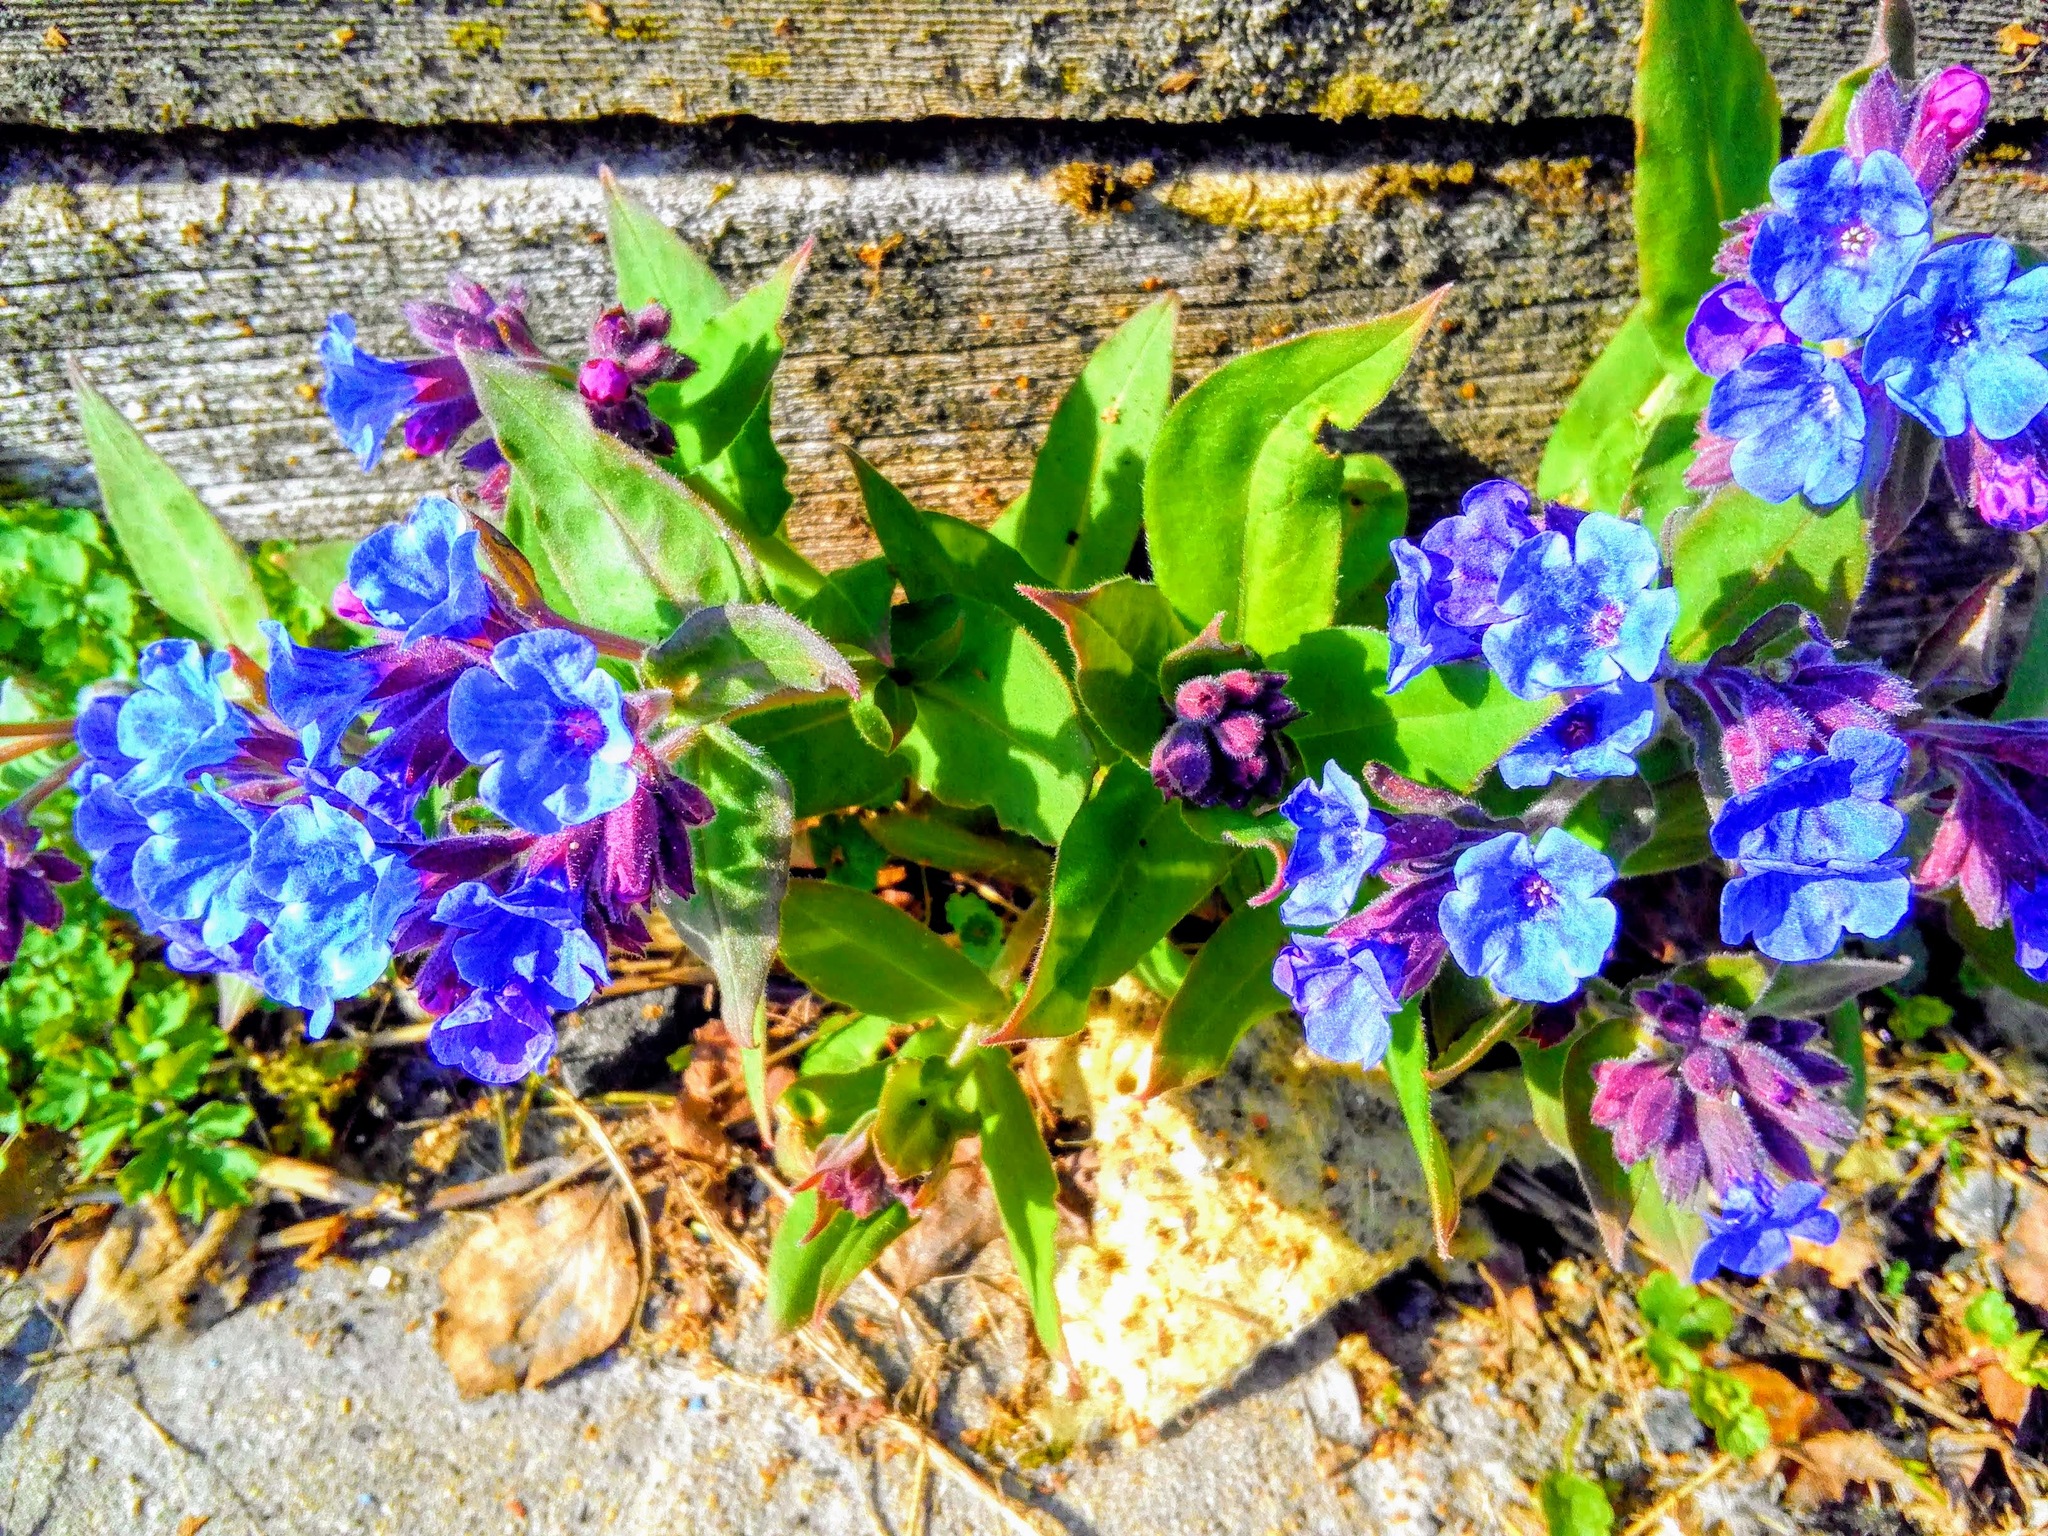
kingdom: Plantae
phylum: Tracheophyta
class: Magnoliopsida
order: Boraginales
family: Boraginaceae
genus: Pulmonaria
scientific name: Pulmonaria mollis
